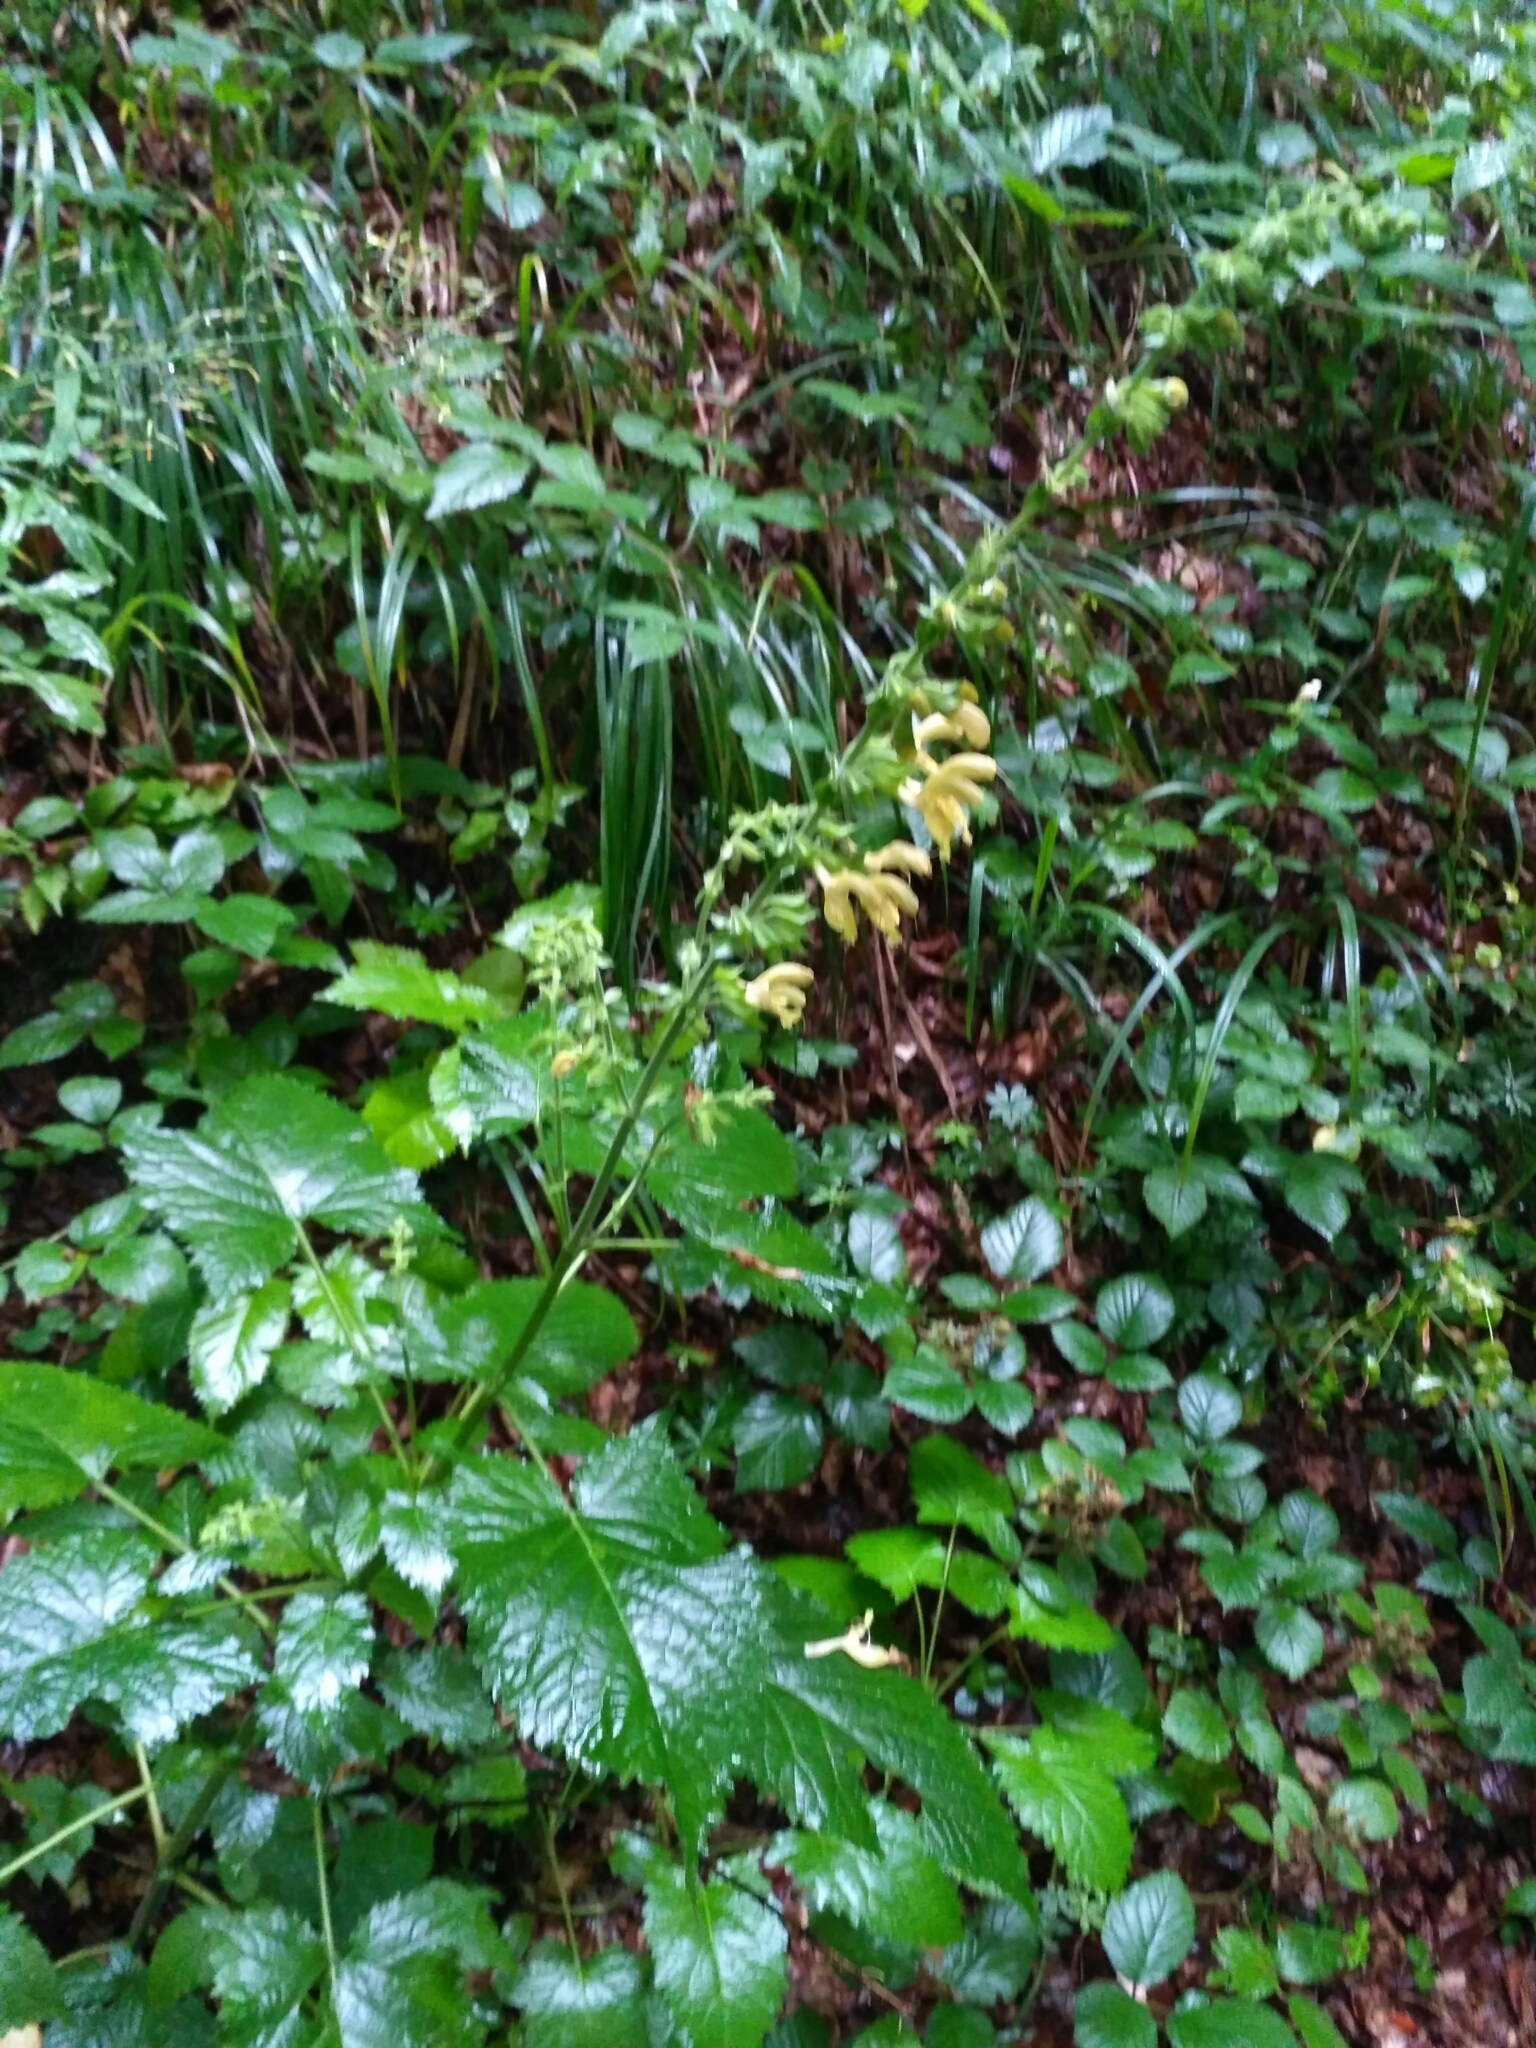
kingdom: Plantae
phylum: Tracheophyta
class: Magnoliopsida
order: Lamiales
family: Lamiaceae
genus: Salvia
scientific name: Salvia glutinosa
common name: Sticky clary
